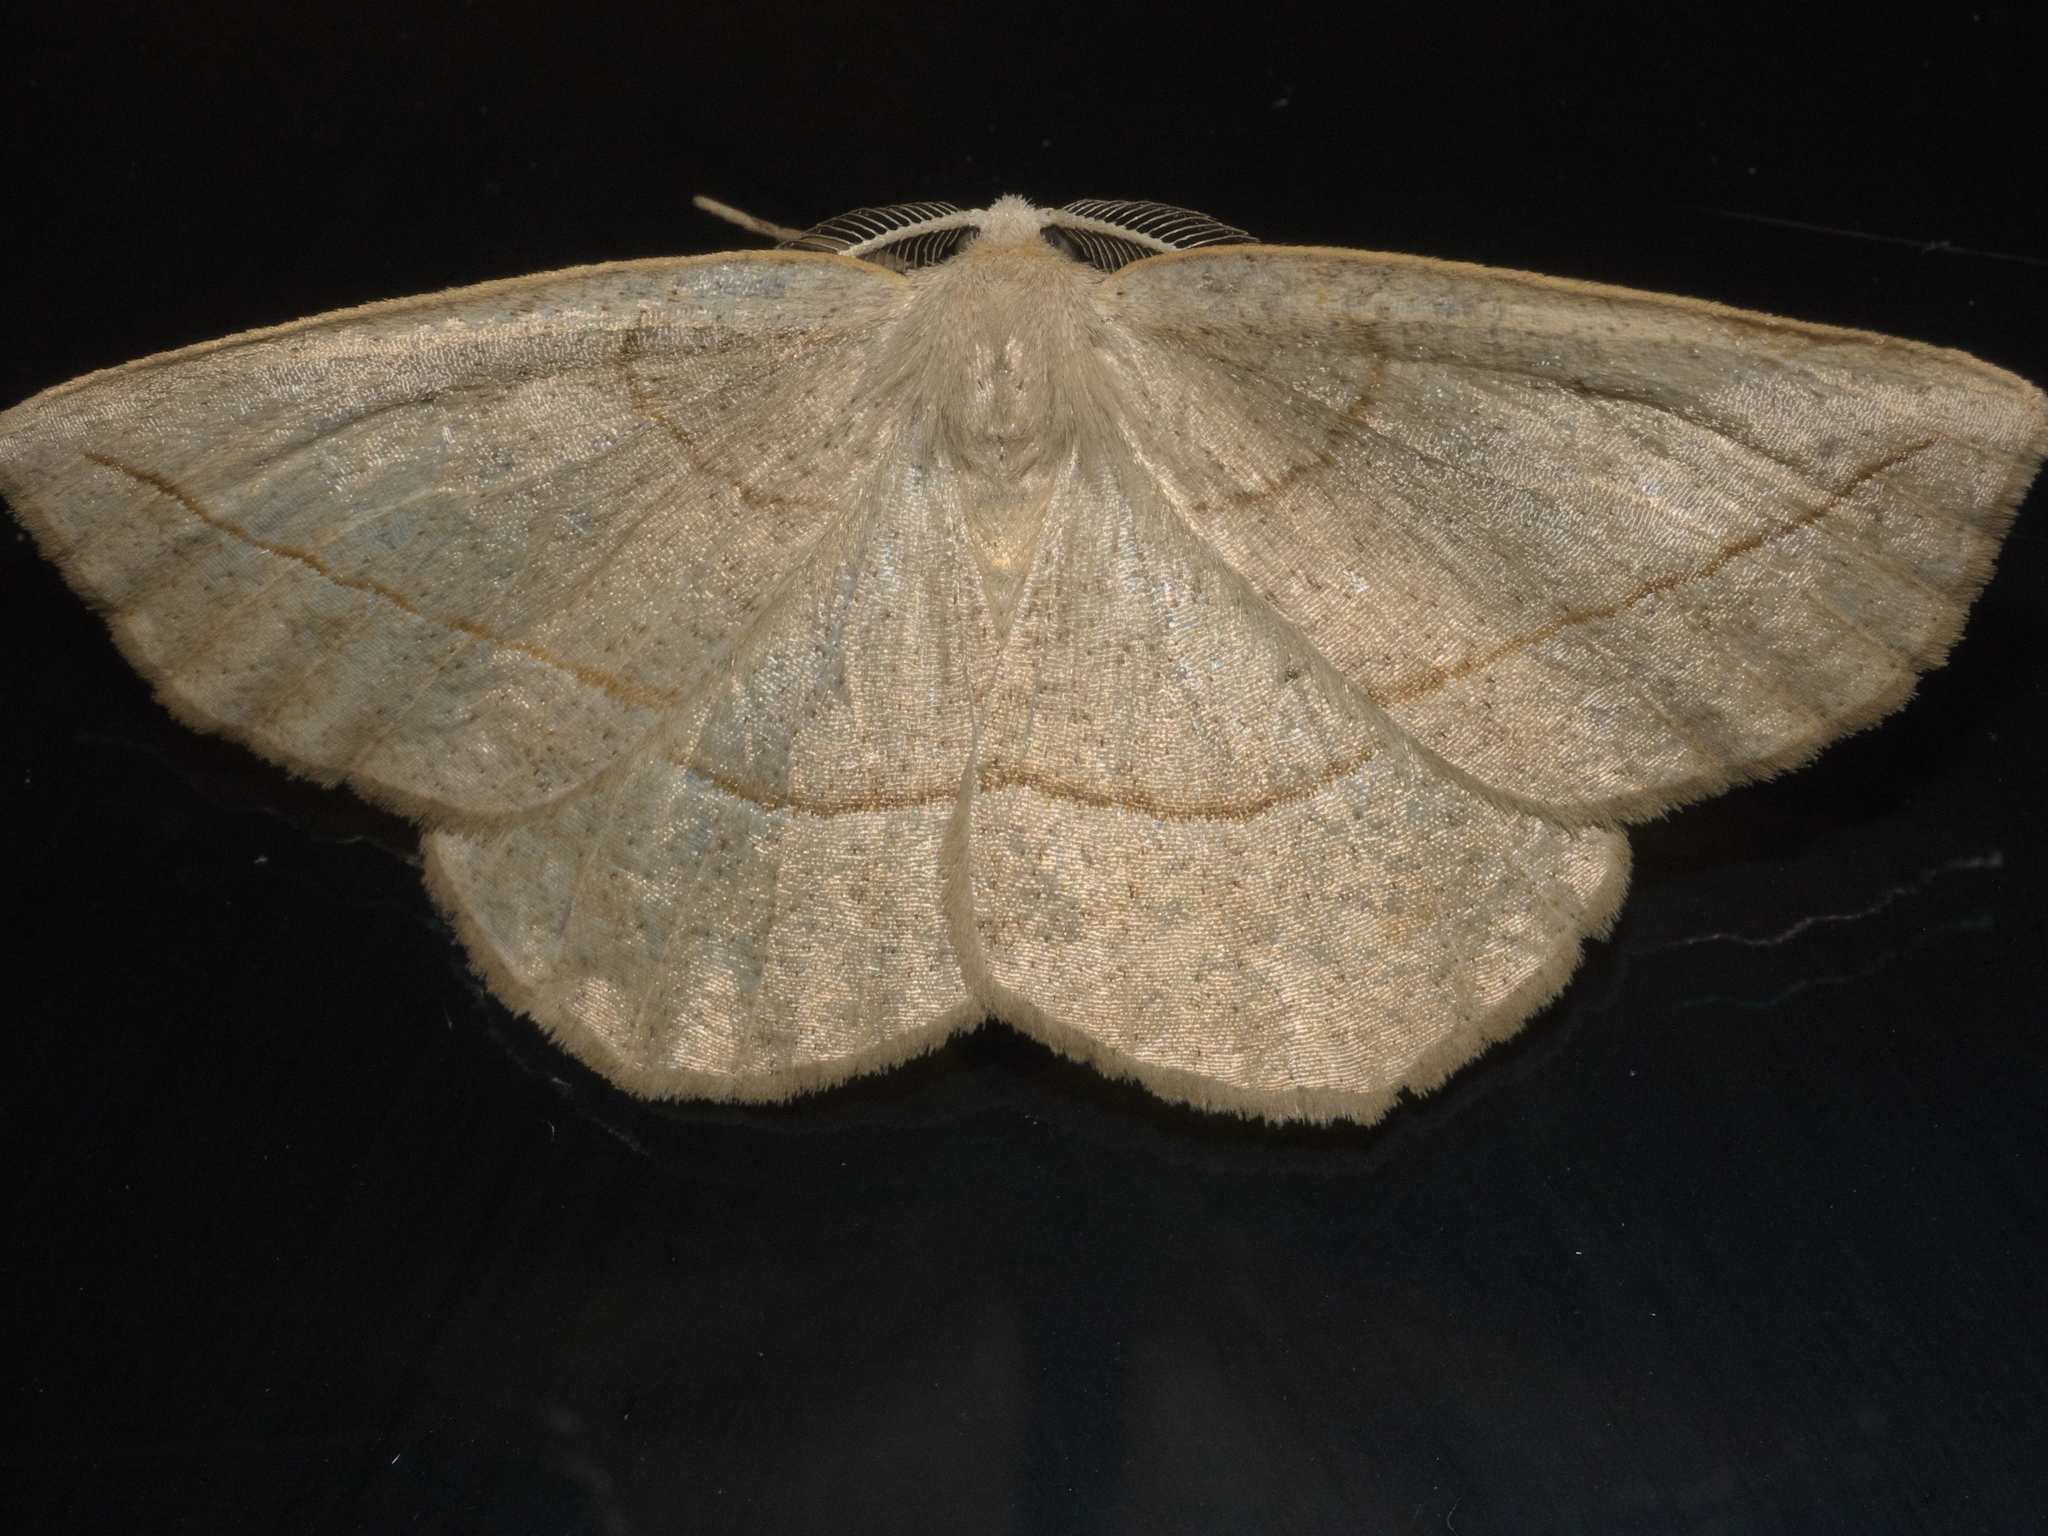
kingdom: Animalia
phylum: Arthropoda
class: Insecta
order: Lepidoptera
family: Geometridae
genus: Eusarca
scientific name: Eusarca confusaria
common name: Confused eusarca
